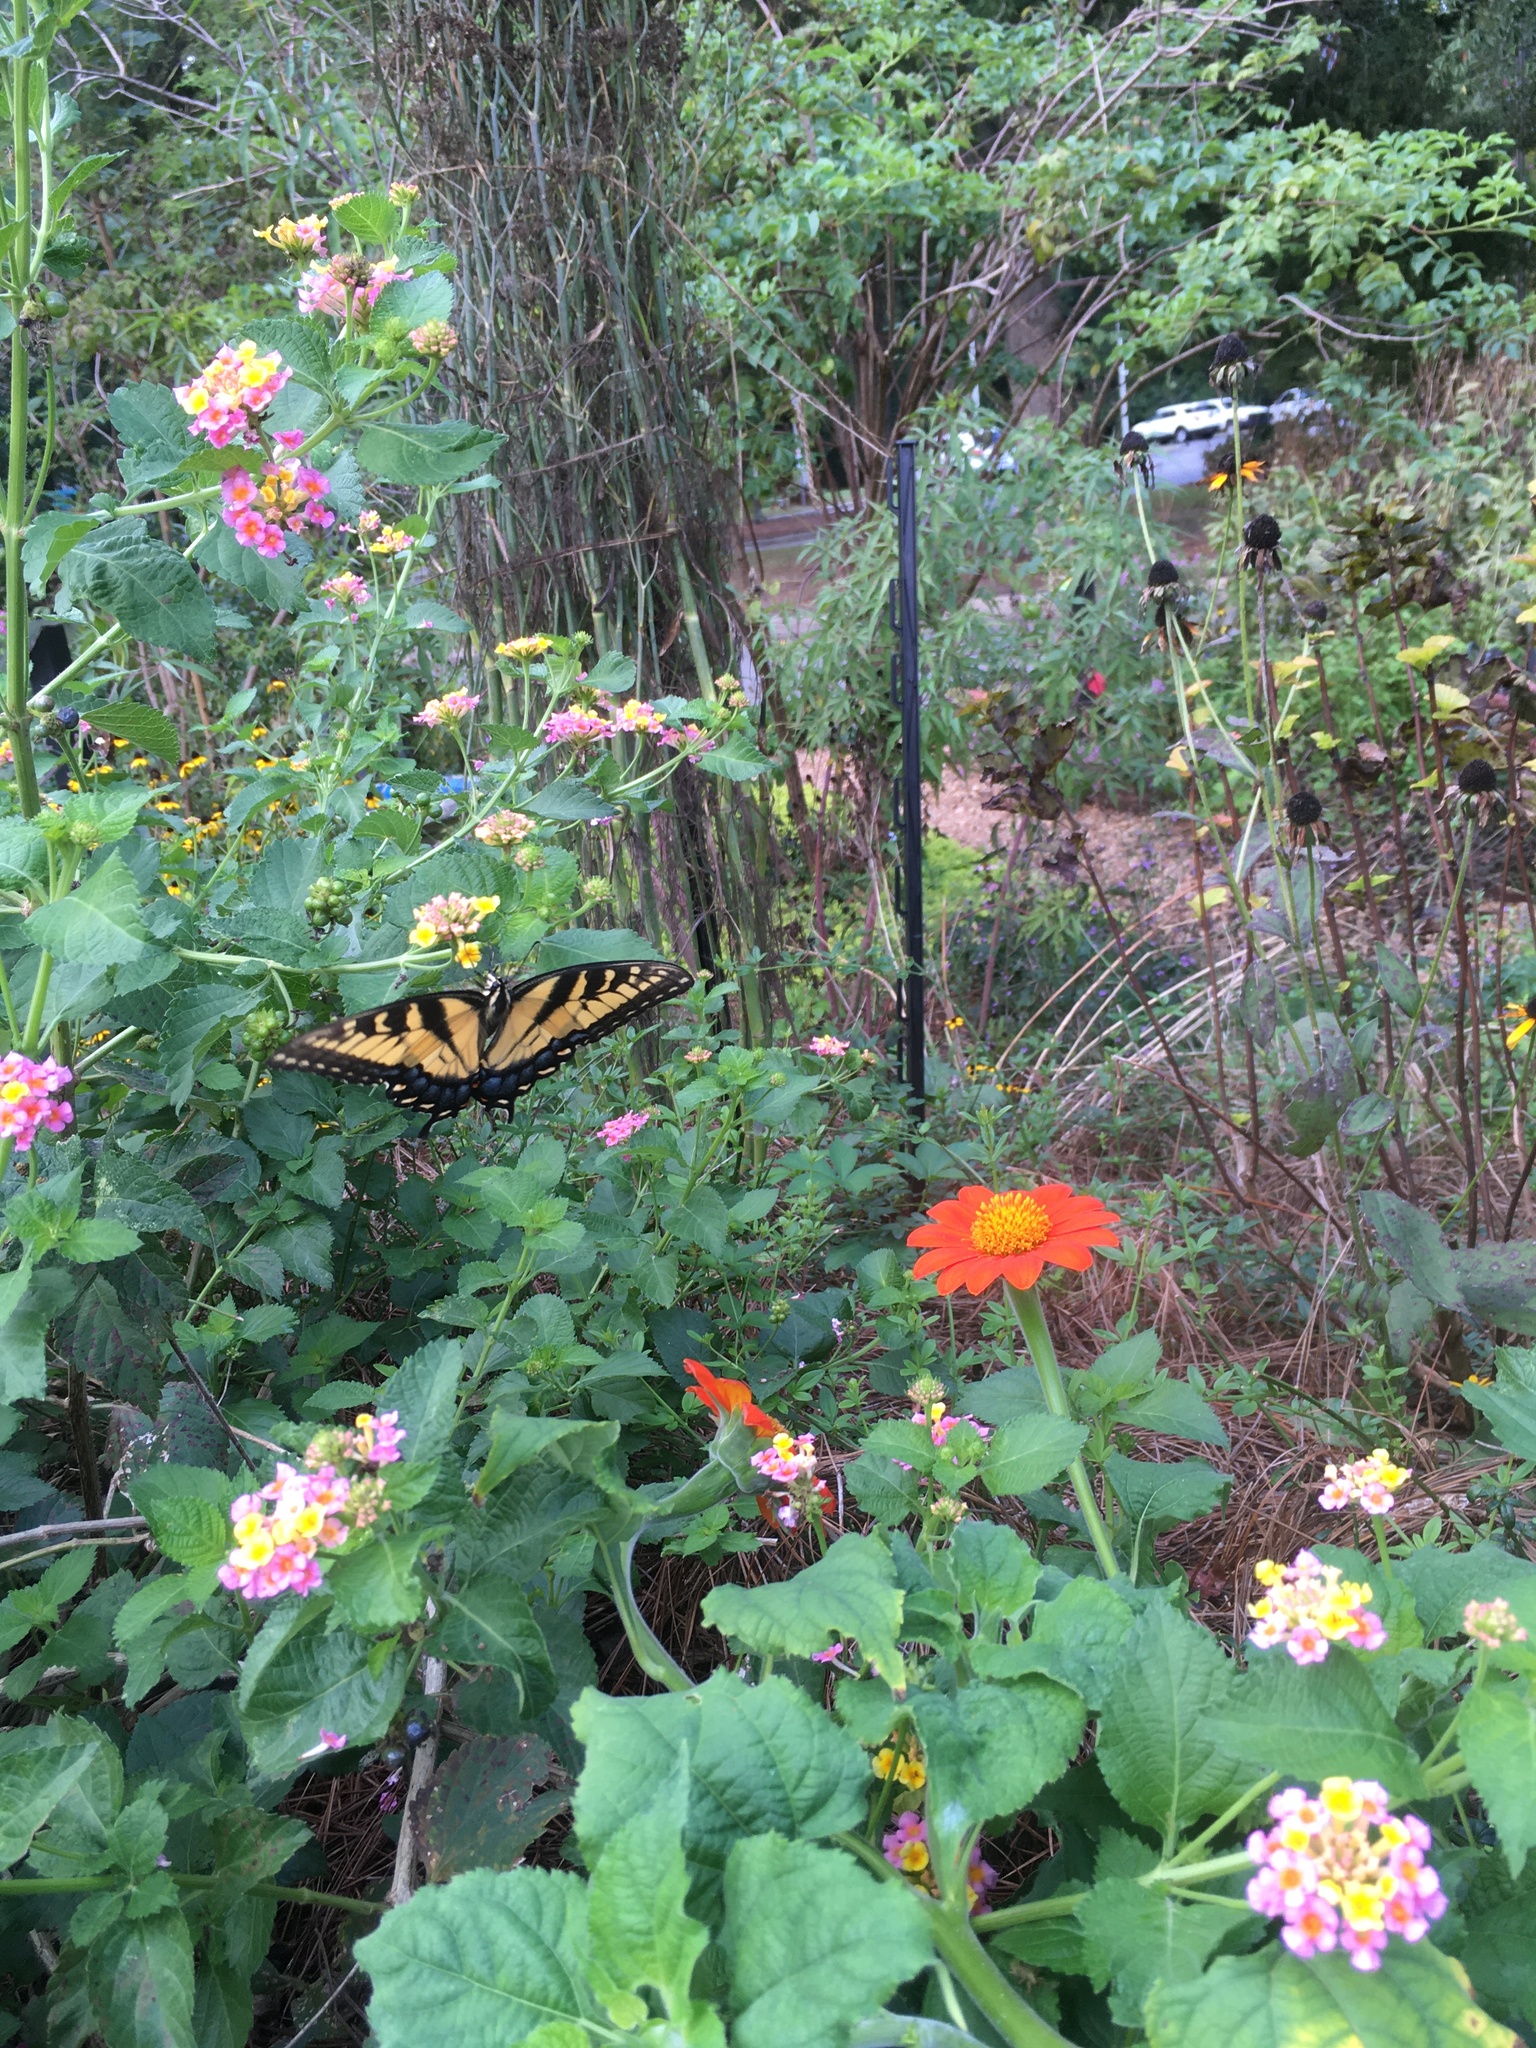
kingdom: Animalia
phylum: Arthropoda
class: Insecta
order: Lepidoptera
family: Papilionidae
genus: Papilio
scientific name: Papilio glaucus
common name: Tiger swallowtail
